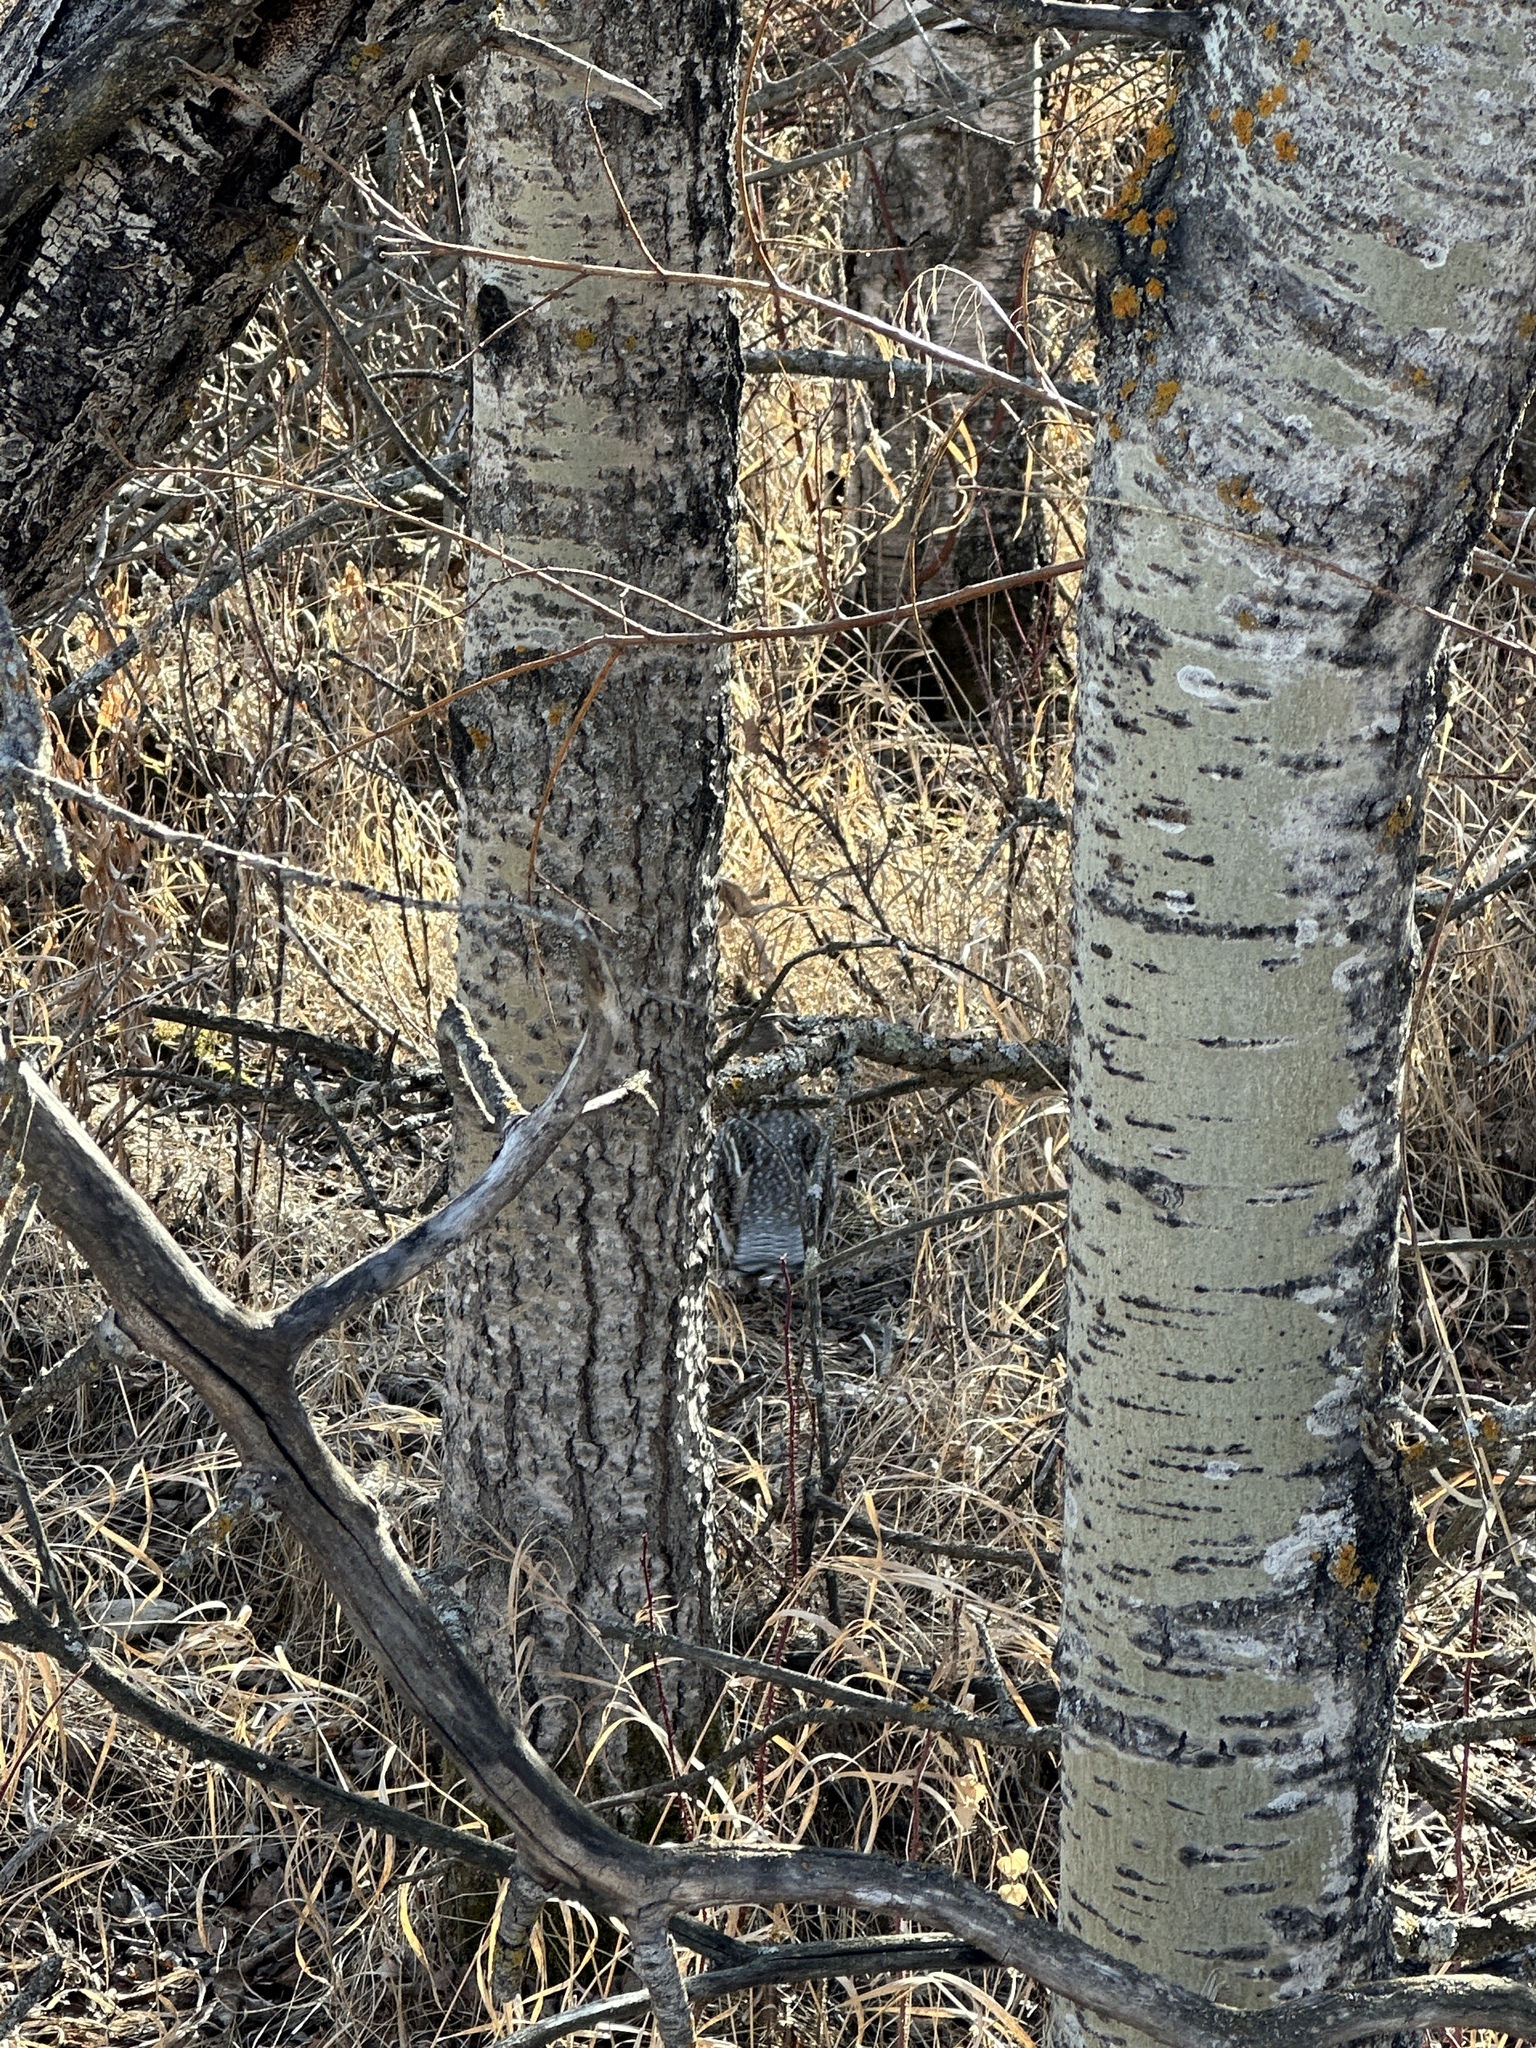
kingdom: Animalia
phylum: Chordata
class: Aves
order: Galliformes
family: Phasianidae
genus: Bonasa
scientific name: Bonasa umbellus
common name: Ruffed grouse
